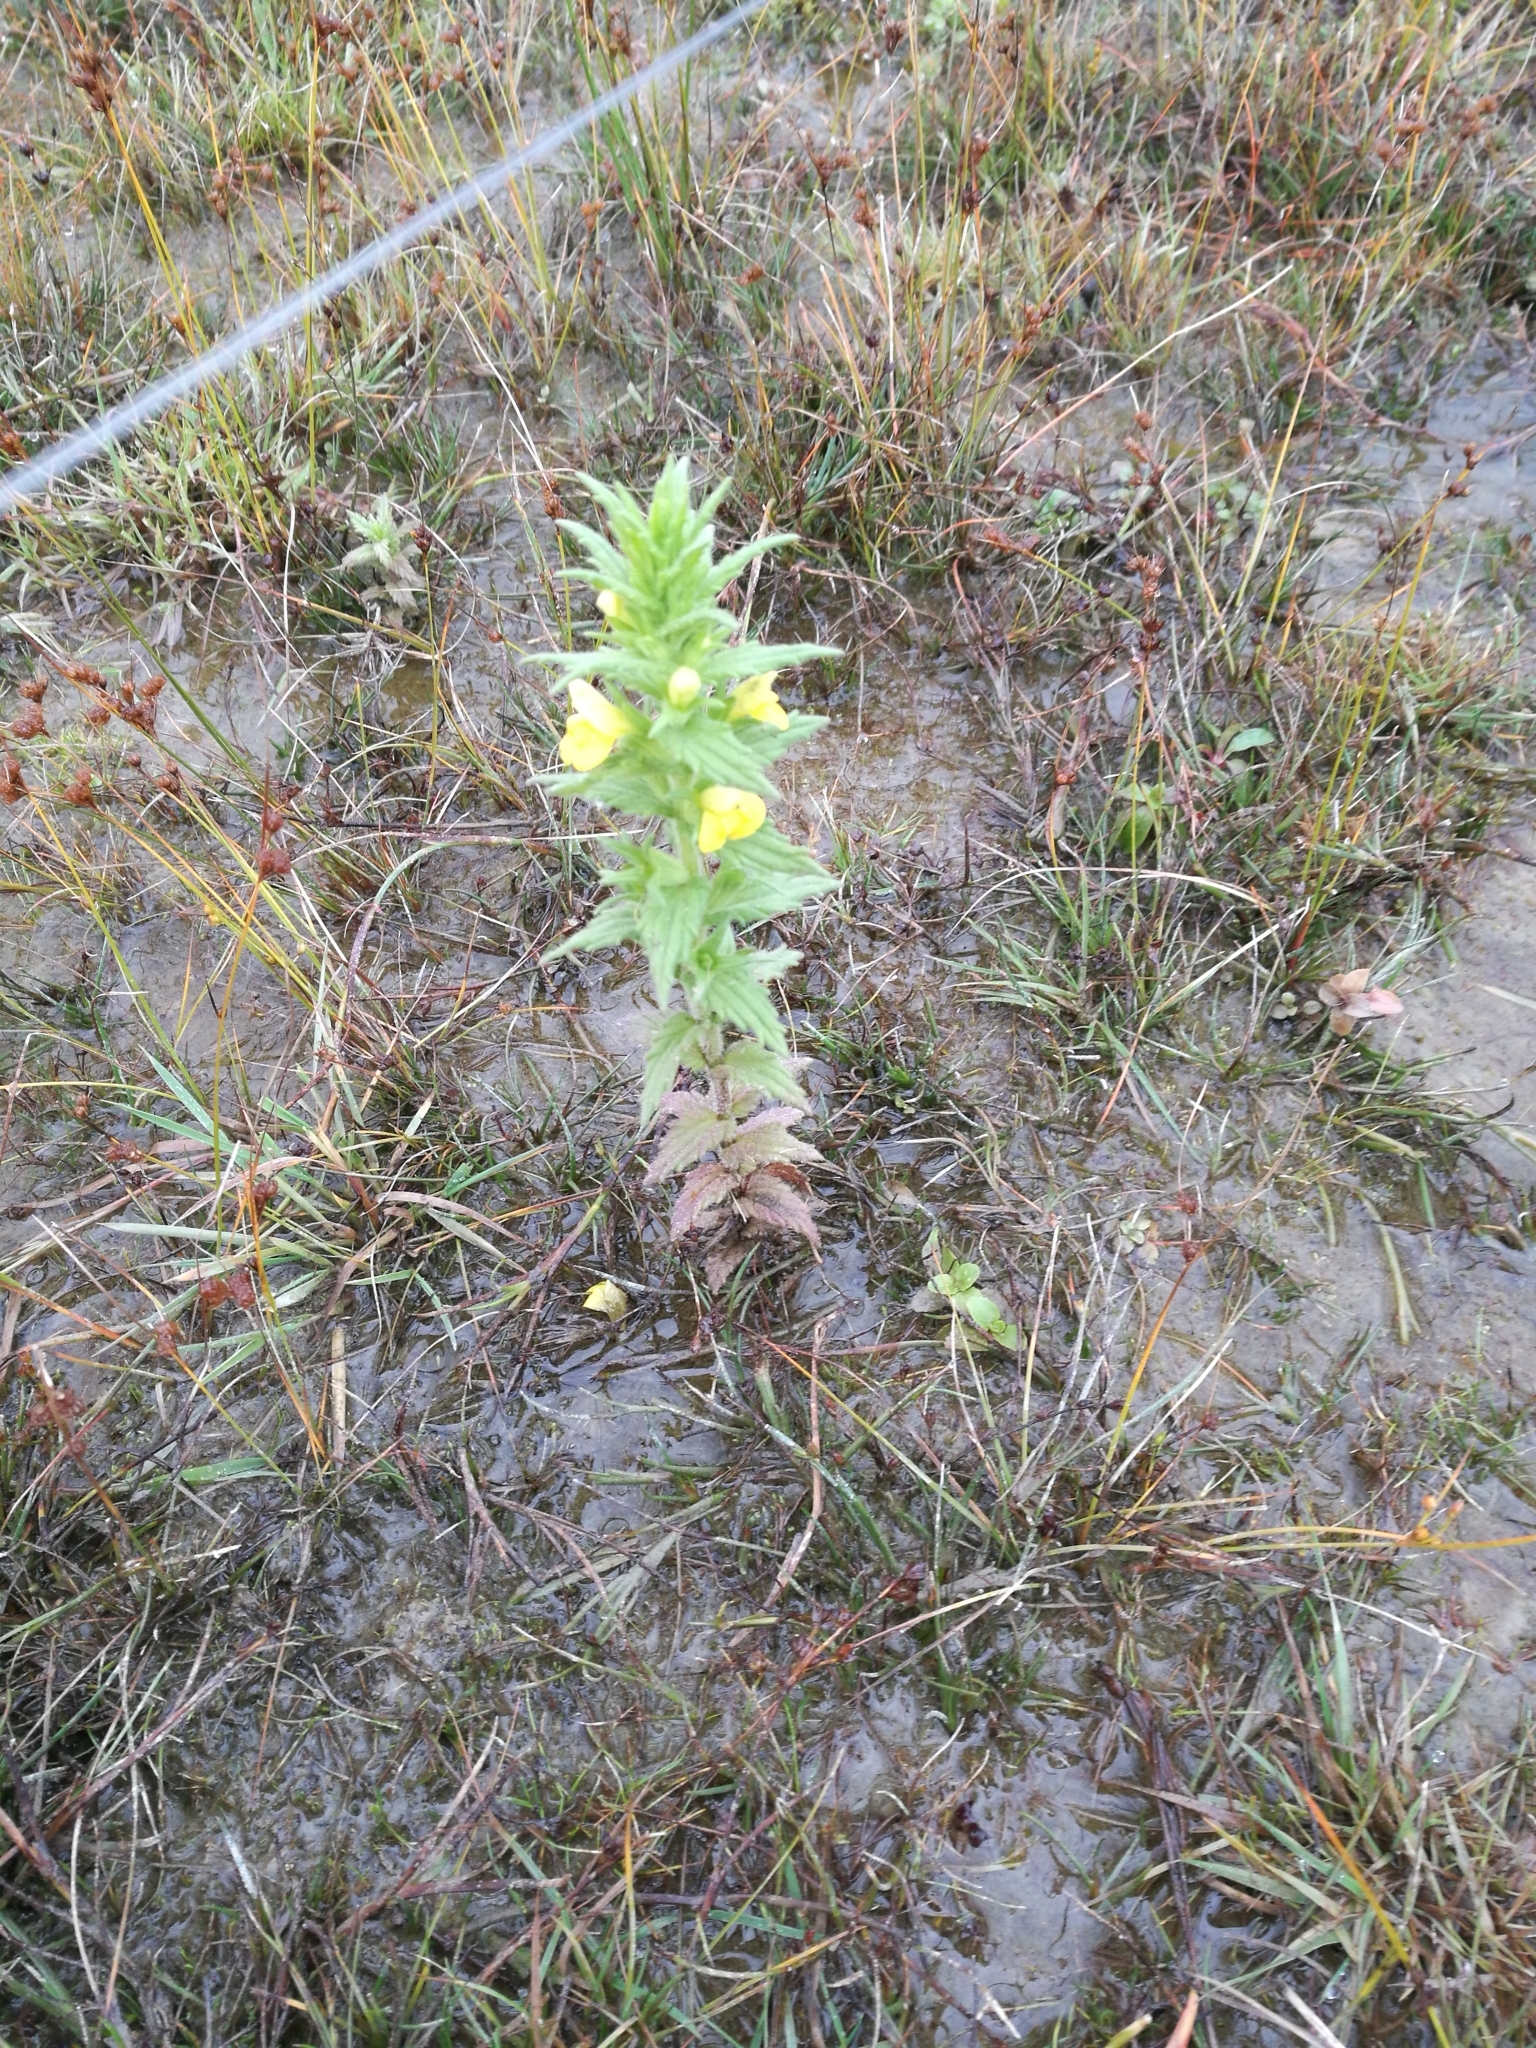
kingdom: Plantae
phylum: Tracheophyta
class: Magnoliopsida
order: Lamiales
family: Orobanchaceae
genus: Bellardia
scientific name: Bellardia viscosa
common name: Sticky parentucellia
